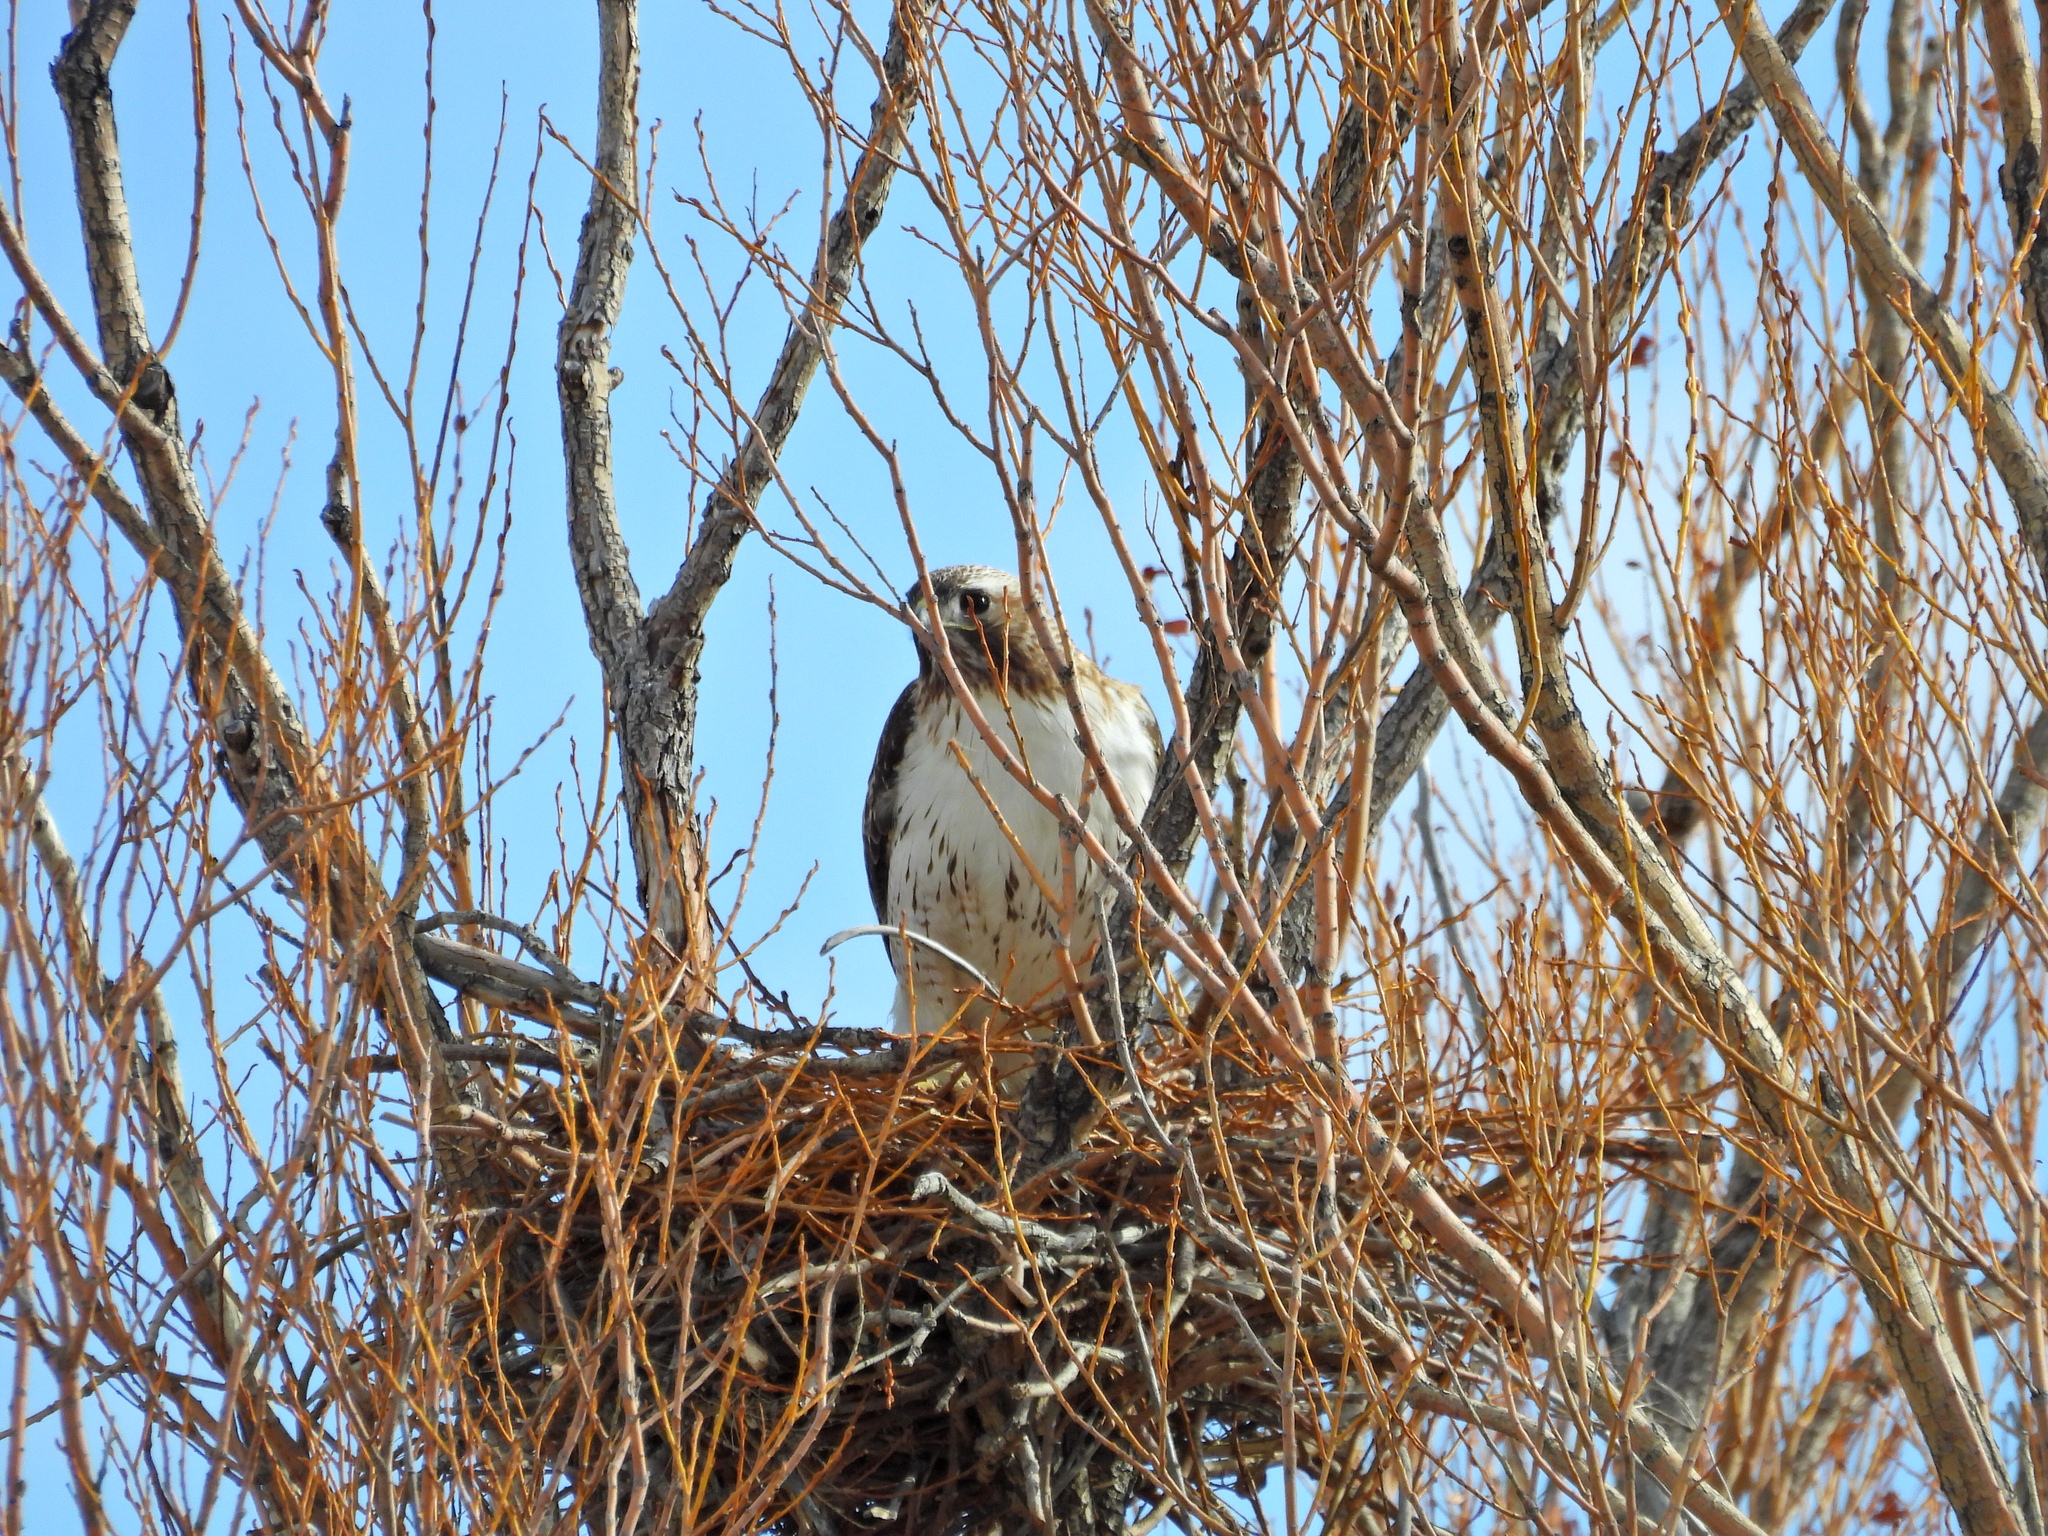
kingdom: Animalia
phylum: Chordata
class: Aves
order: Accipitriformes
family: Accipitridae
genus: Buteo
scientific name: Buteo jamaicensis
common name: Red-tailed hawk
